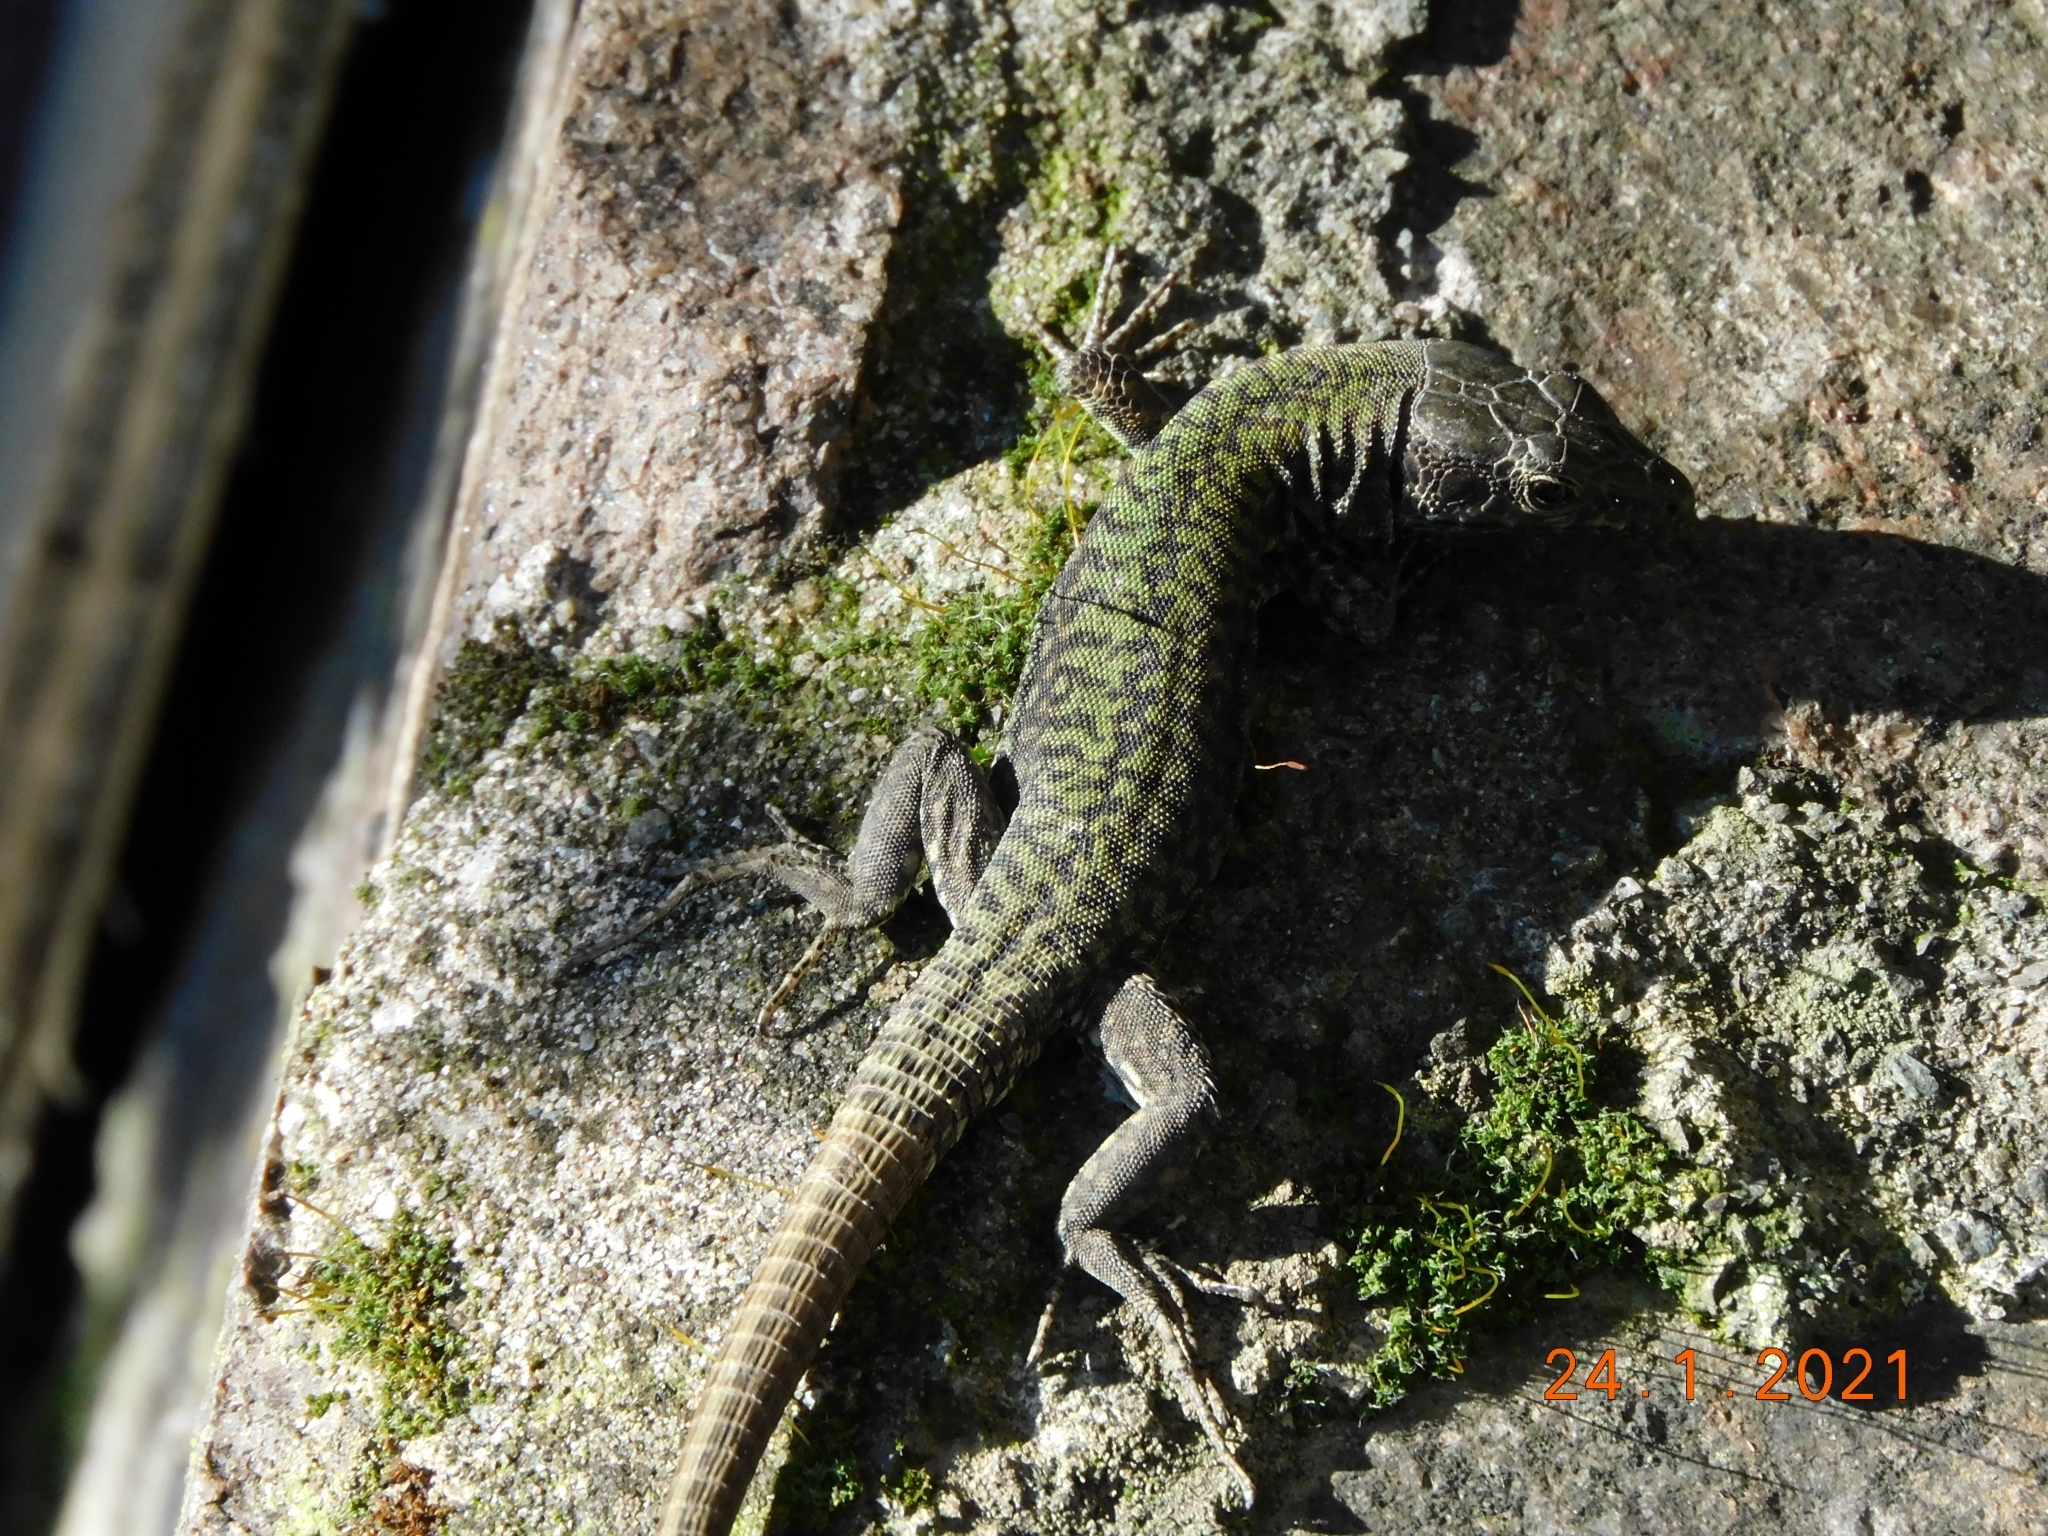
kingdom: Animalia
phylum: Chordata
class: Squamata
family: Lacertidae
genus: Podarcis
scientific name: Podarcis muralis
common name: Common wall lizard
